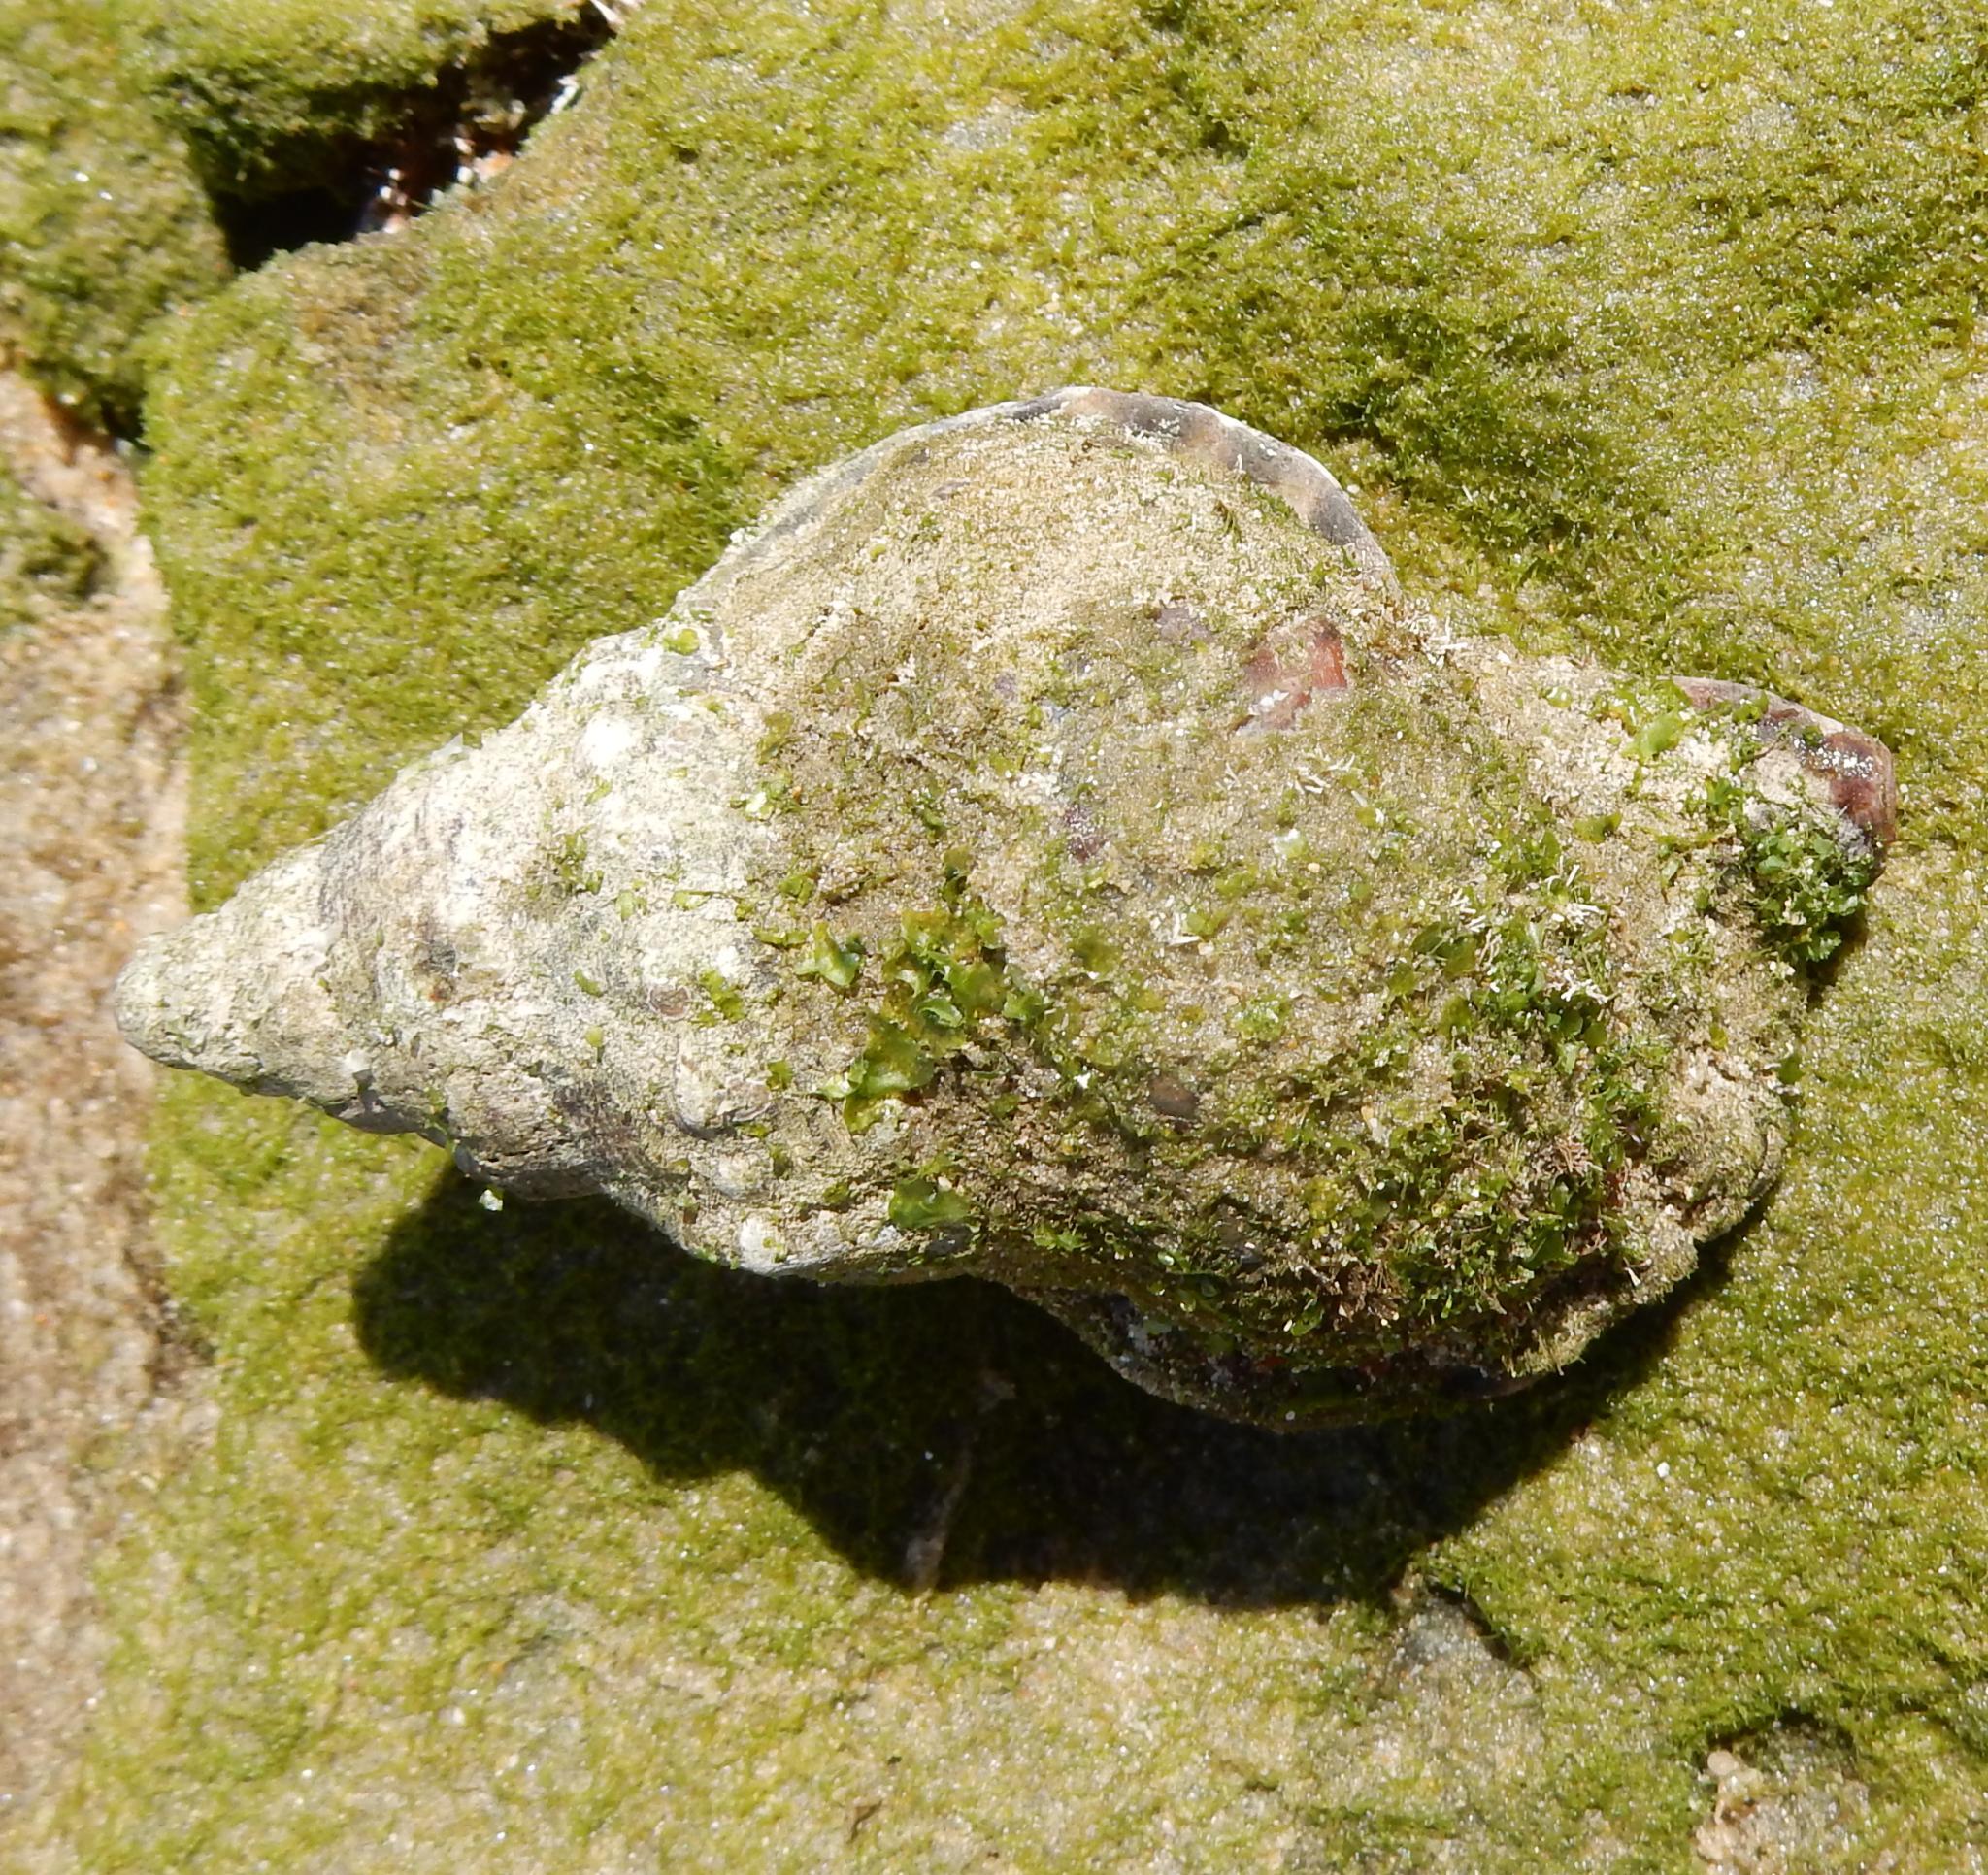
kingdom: Animalia
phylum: Mollusca
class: Gastropoda
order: Littorinimorpha
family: Ranellidae
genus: Ranella
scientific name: Ranella gemmifera
